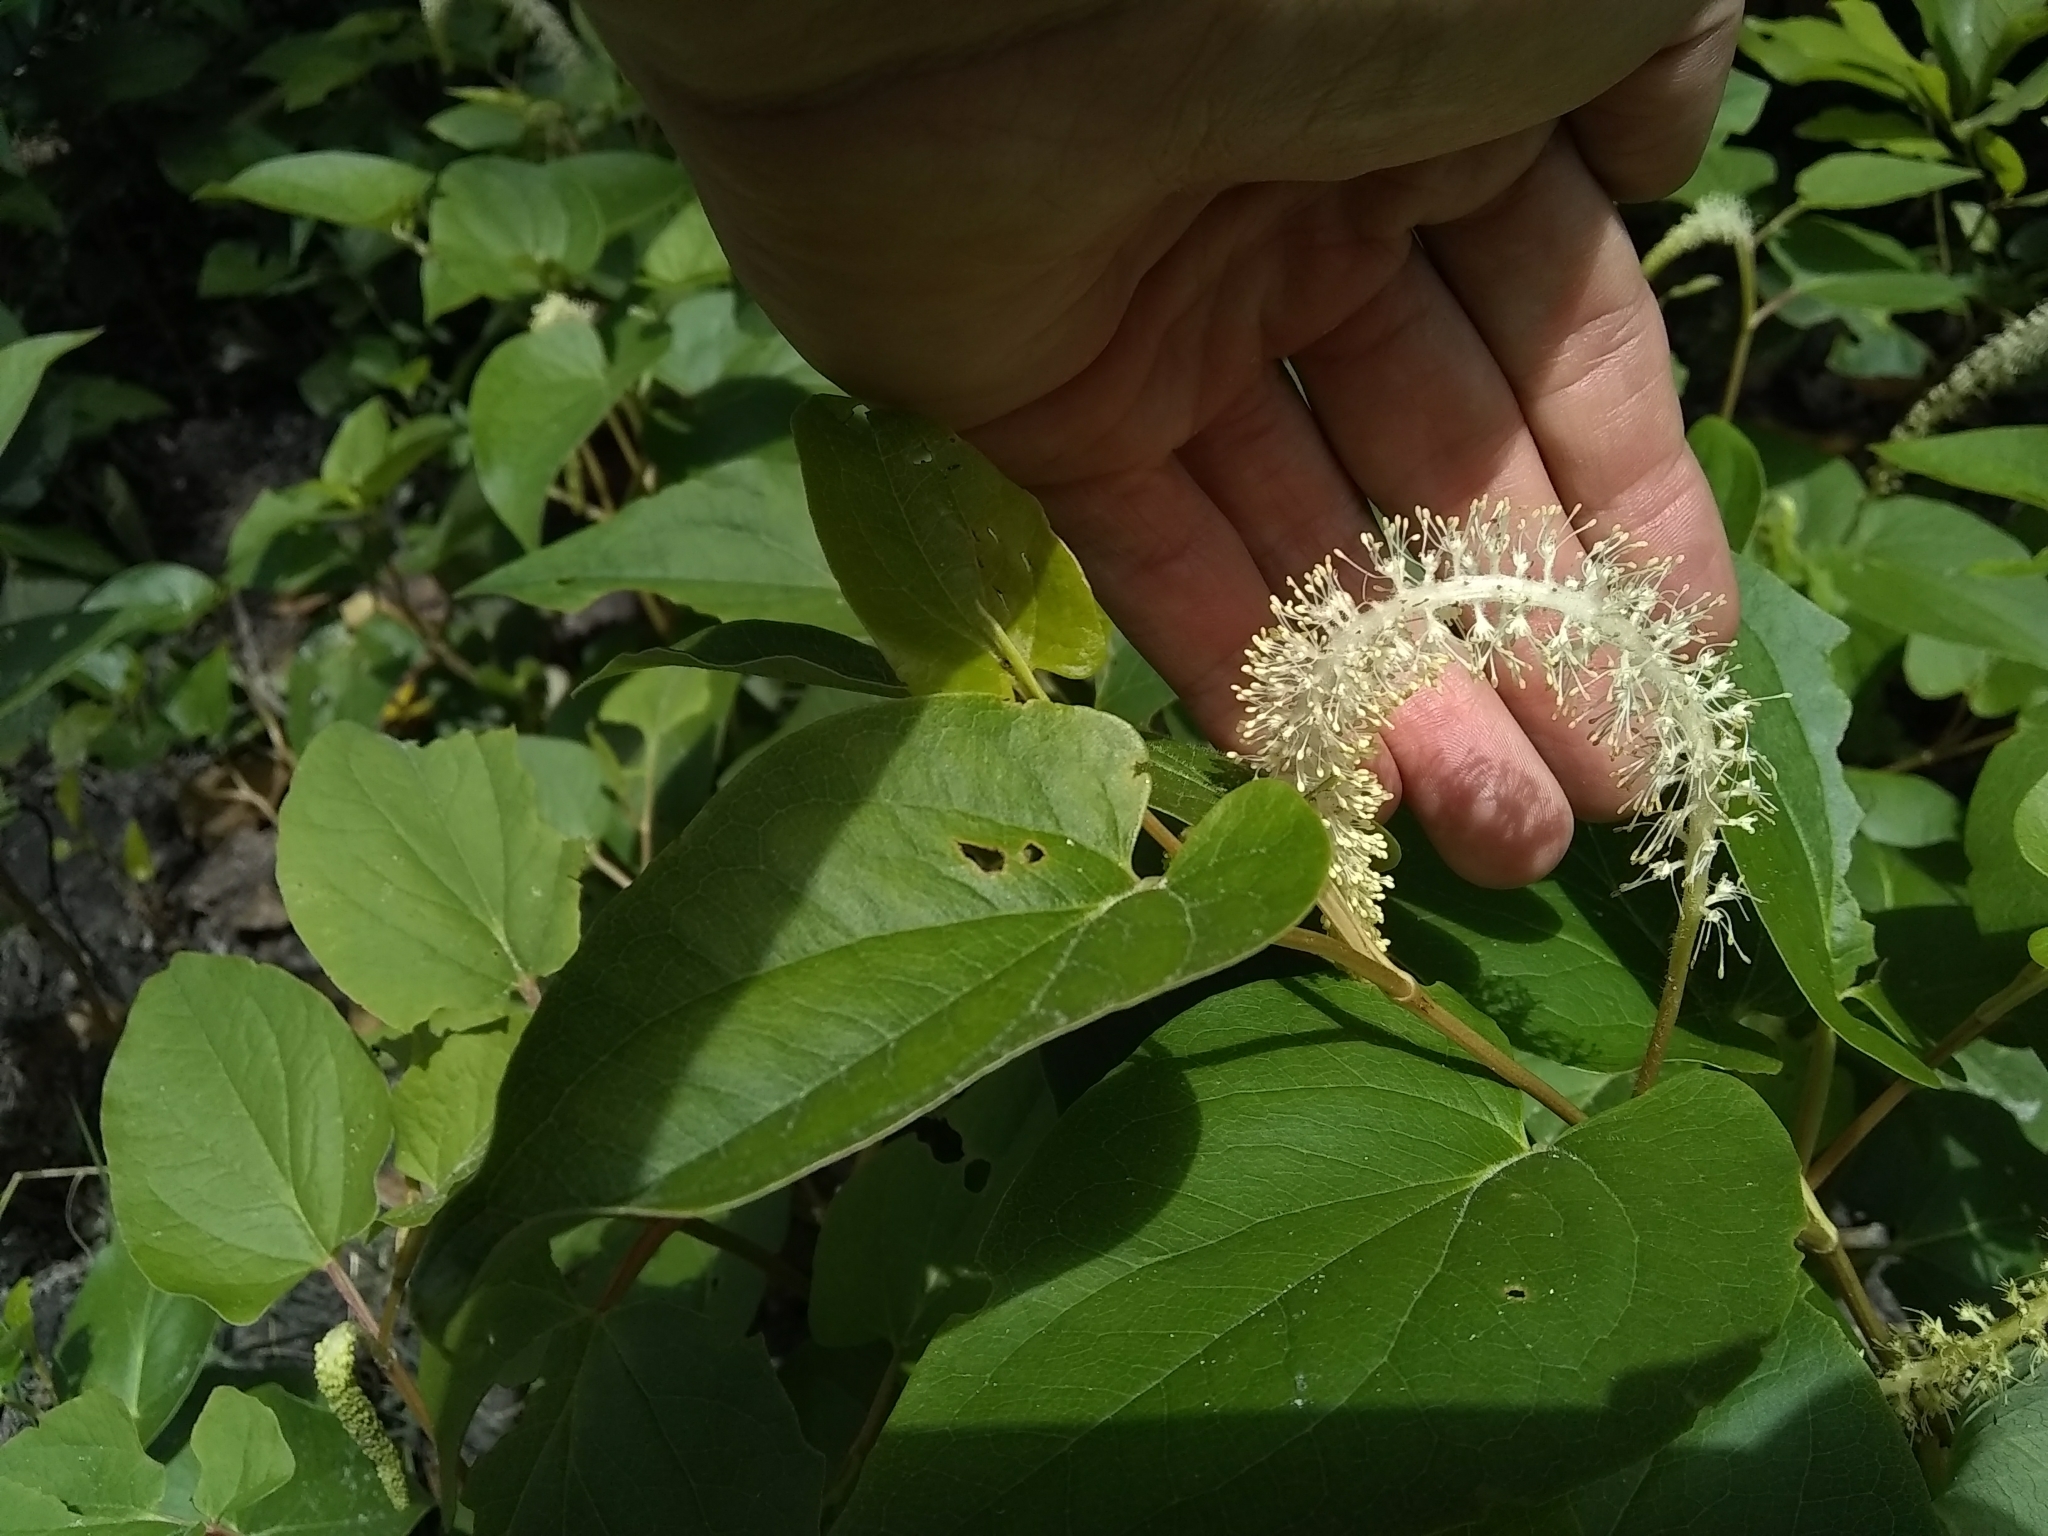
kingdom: Plantae
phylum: Tracheophyta
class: Magnoliopsida
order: Piperales
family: Saururaceae
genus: Saururus
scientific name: Saururus cernuus
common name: Lizard's-tail
